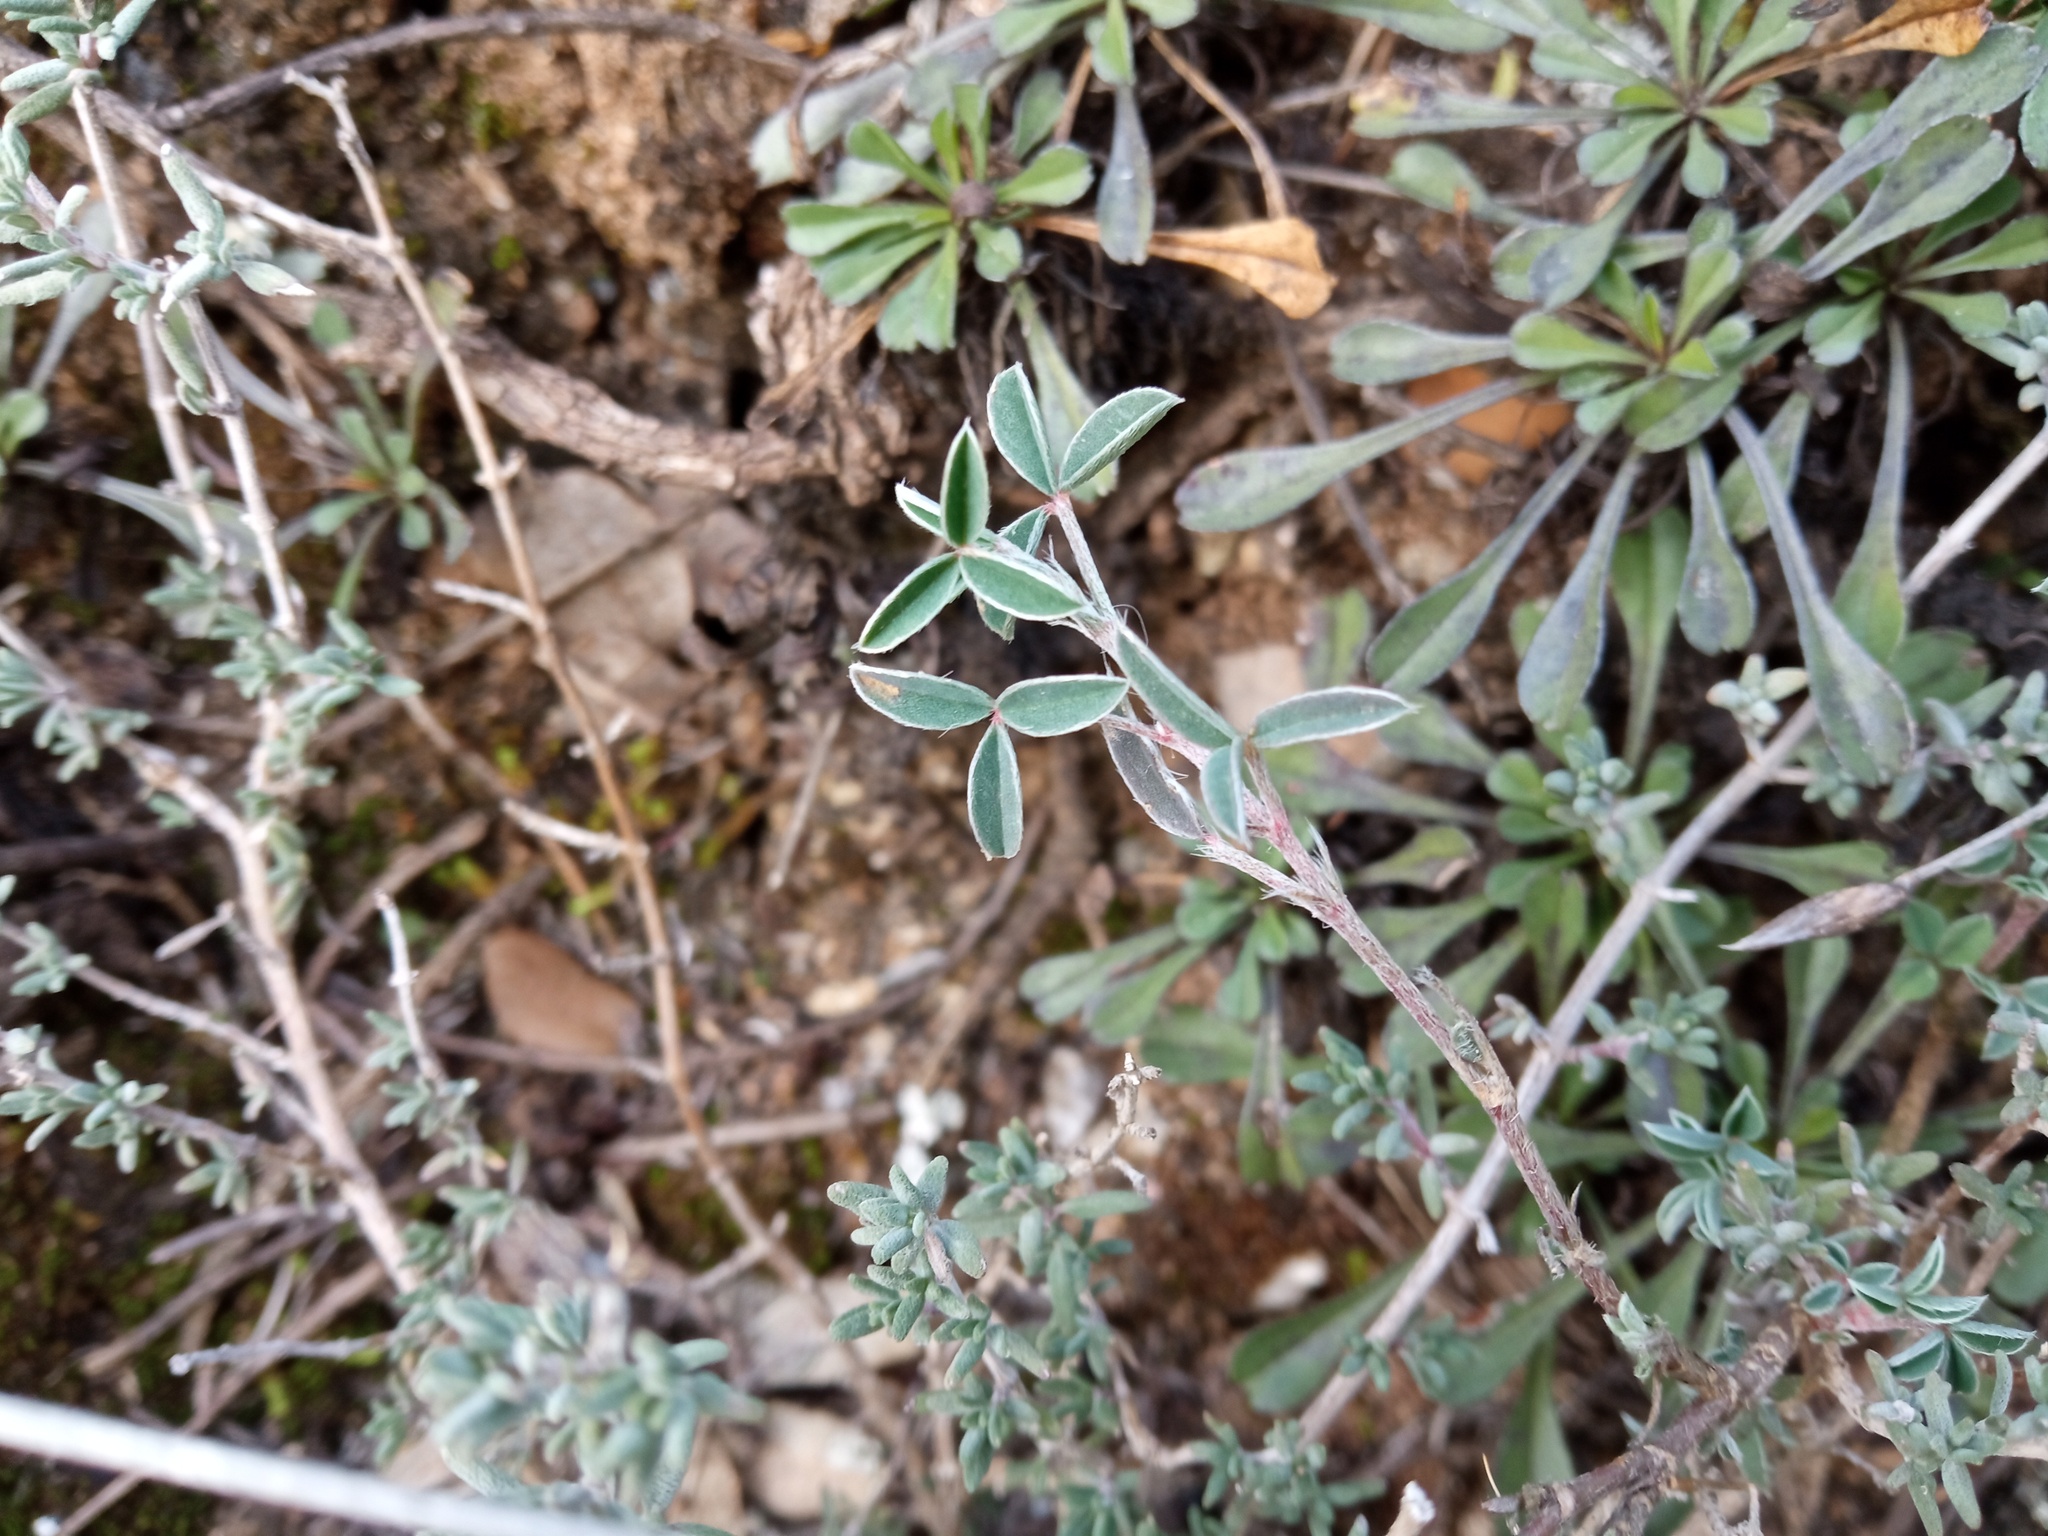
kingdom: Plantae
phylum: Tracheophyta
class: Magnoliopsida
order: Fabales
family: Fabaceae
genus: Argyrolobium
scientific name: Argyrolobium zanonii
